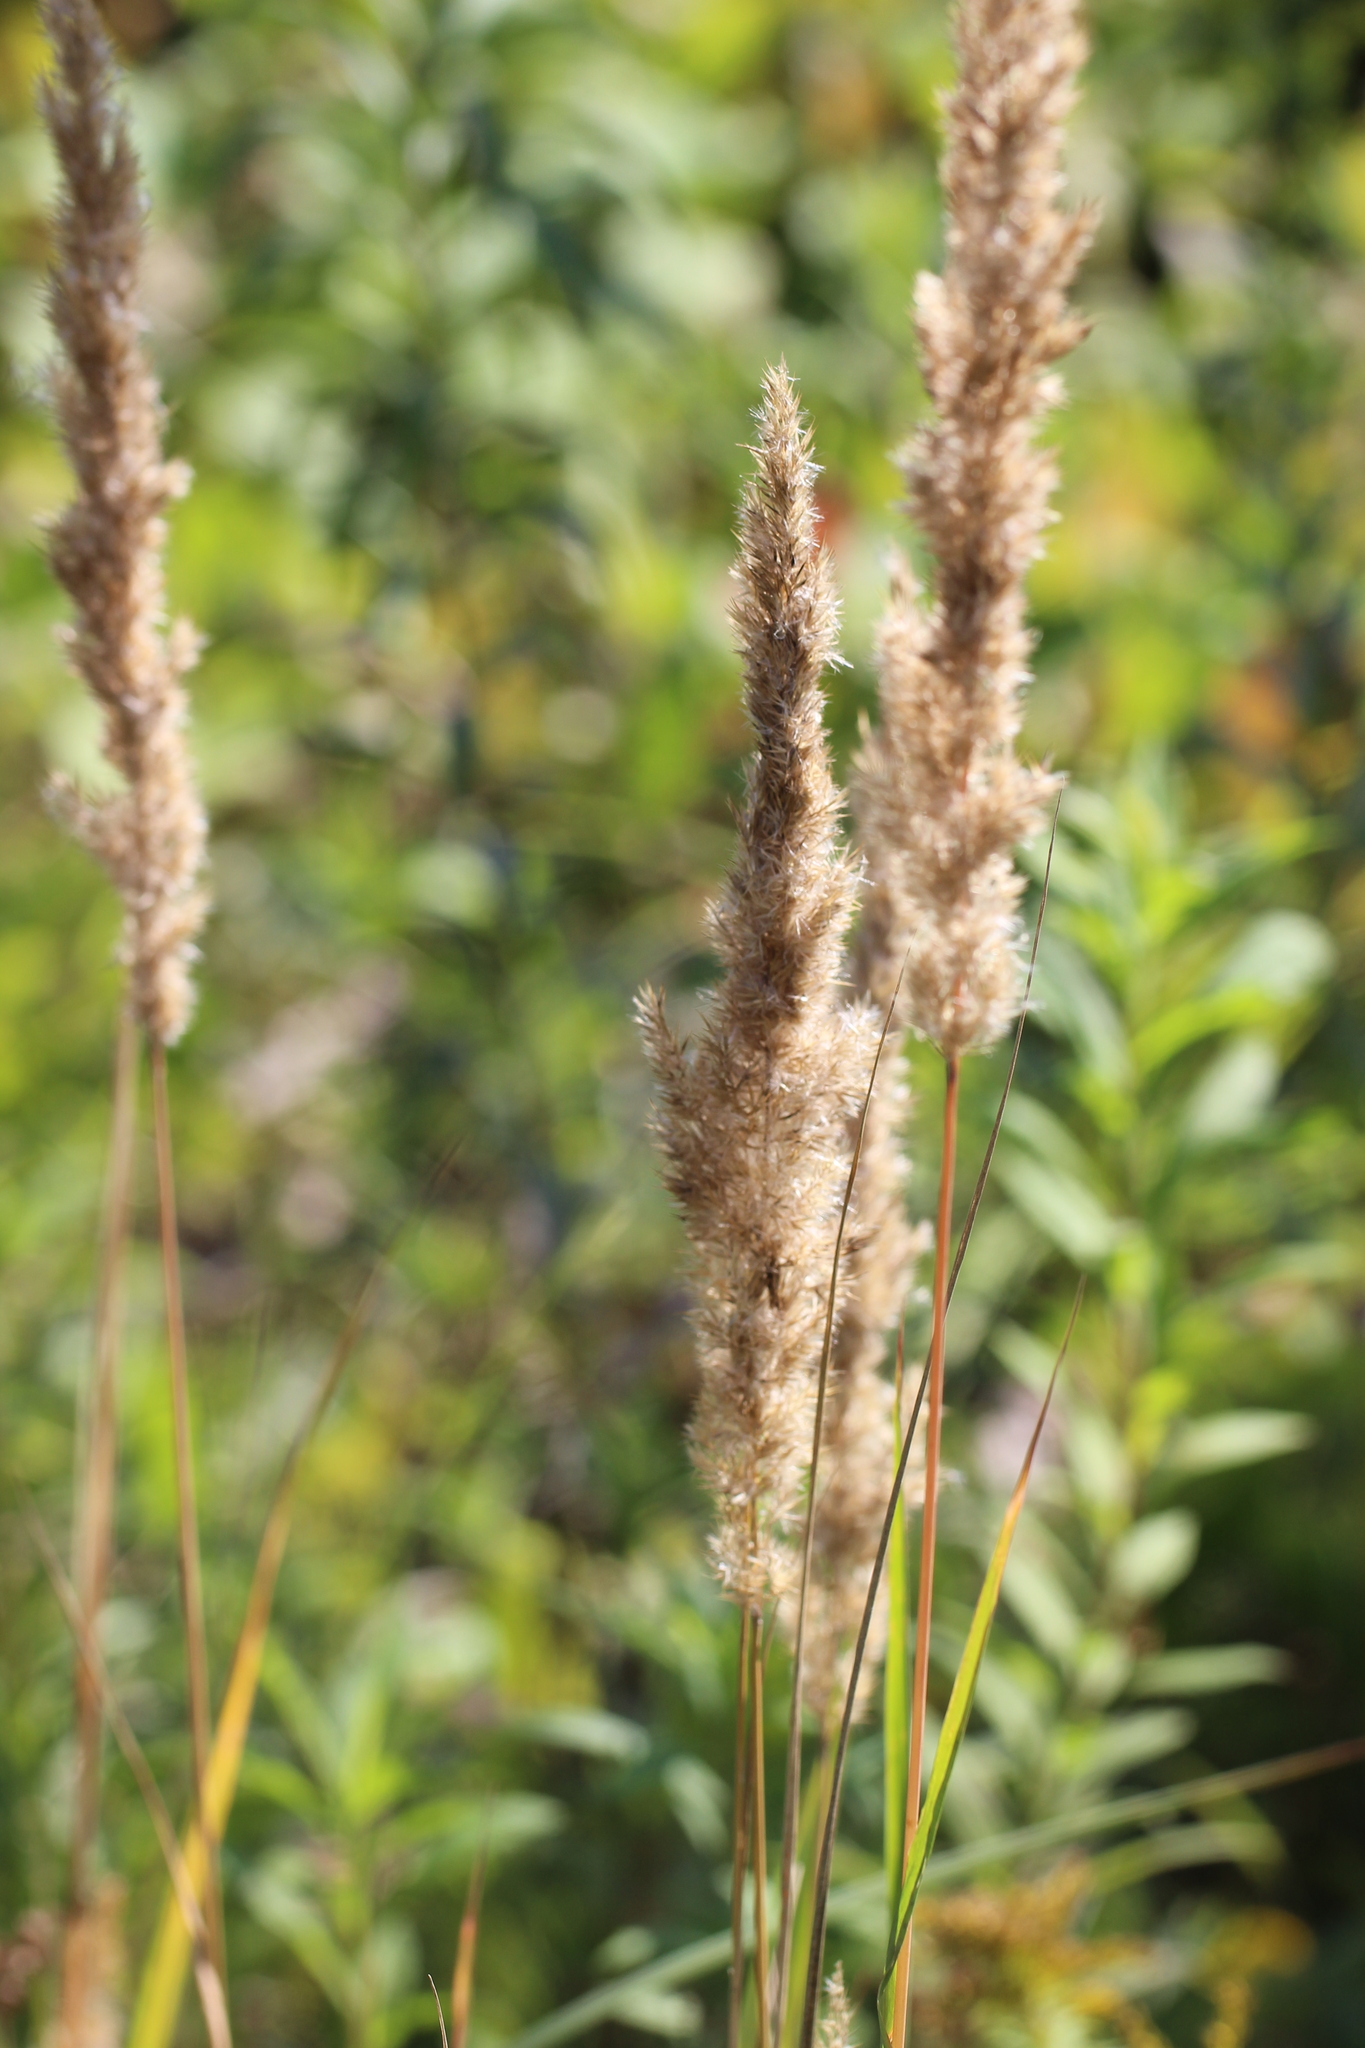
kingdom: Plantae
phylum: Tracheophyta
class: Liliopsida
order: Poales
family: Poaceae
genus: Calamagrostis
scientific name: Calamagrostis epigejos
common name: Wood small-reed
